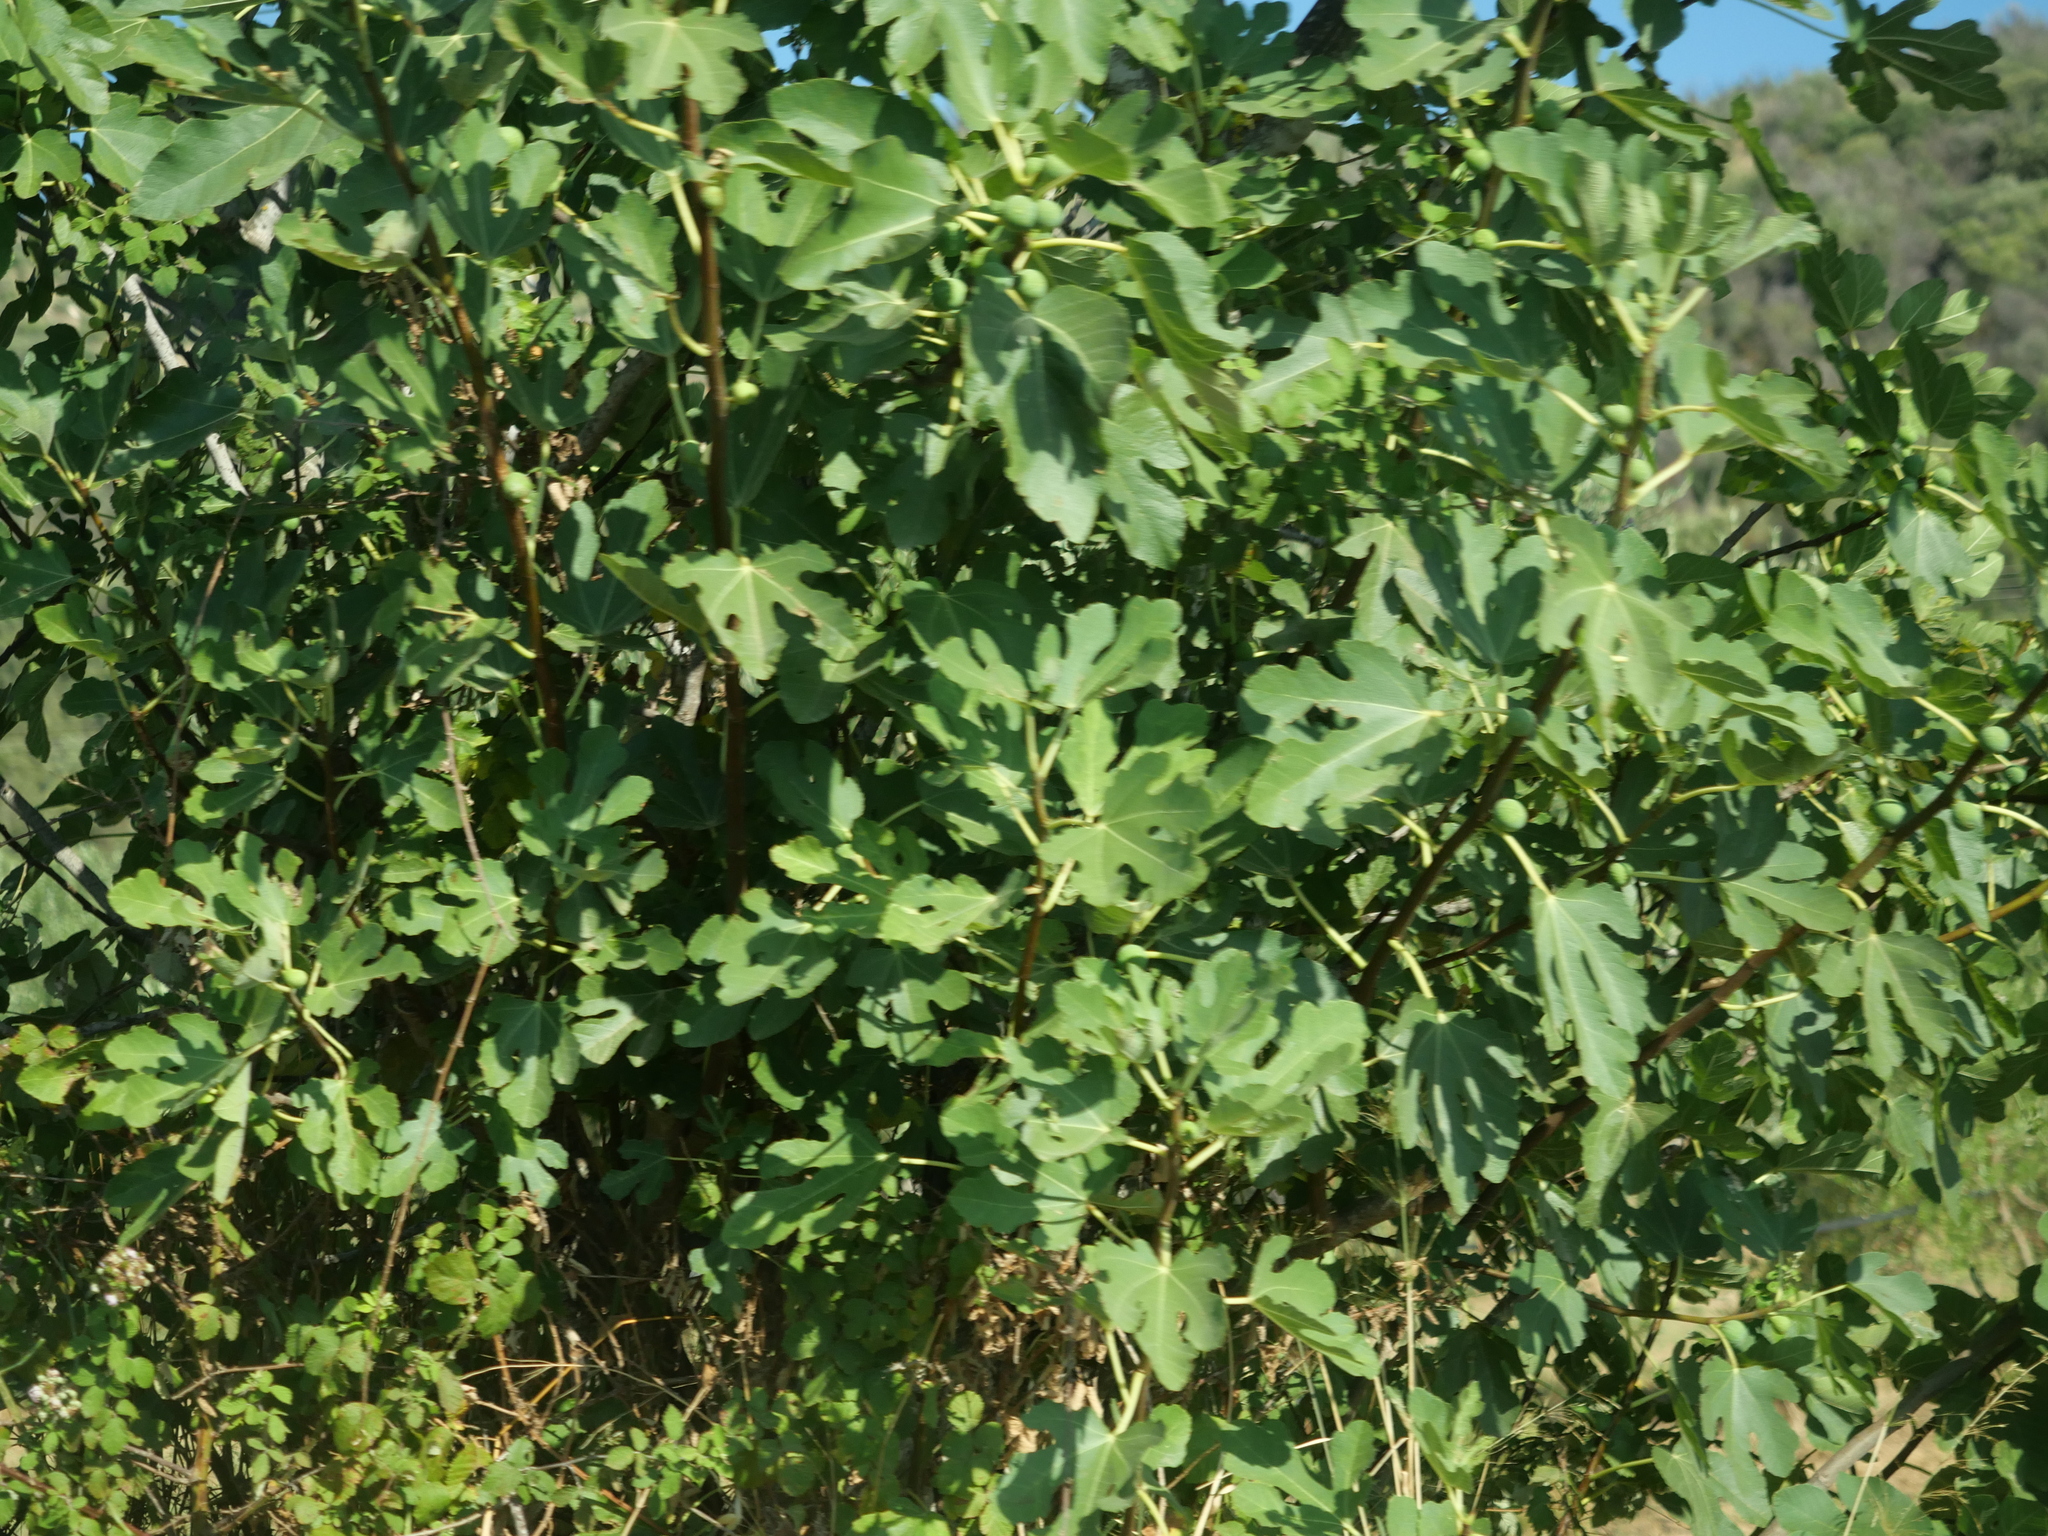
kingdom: Plantae
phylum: Tracheophyta
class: Magnoliopsida
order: Rosales
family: Moraceae
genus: Ficus
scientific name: Ficus carica
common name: Fig
